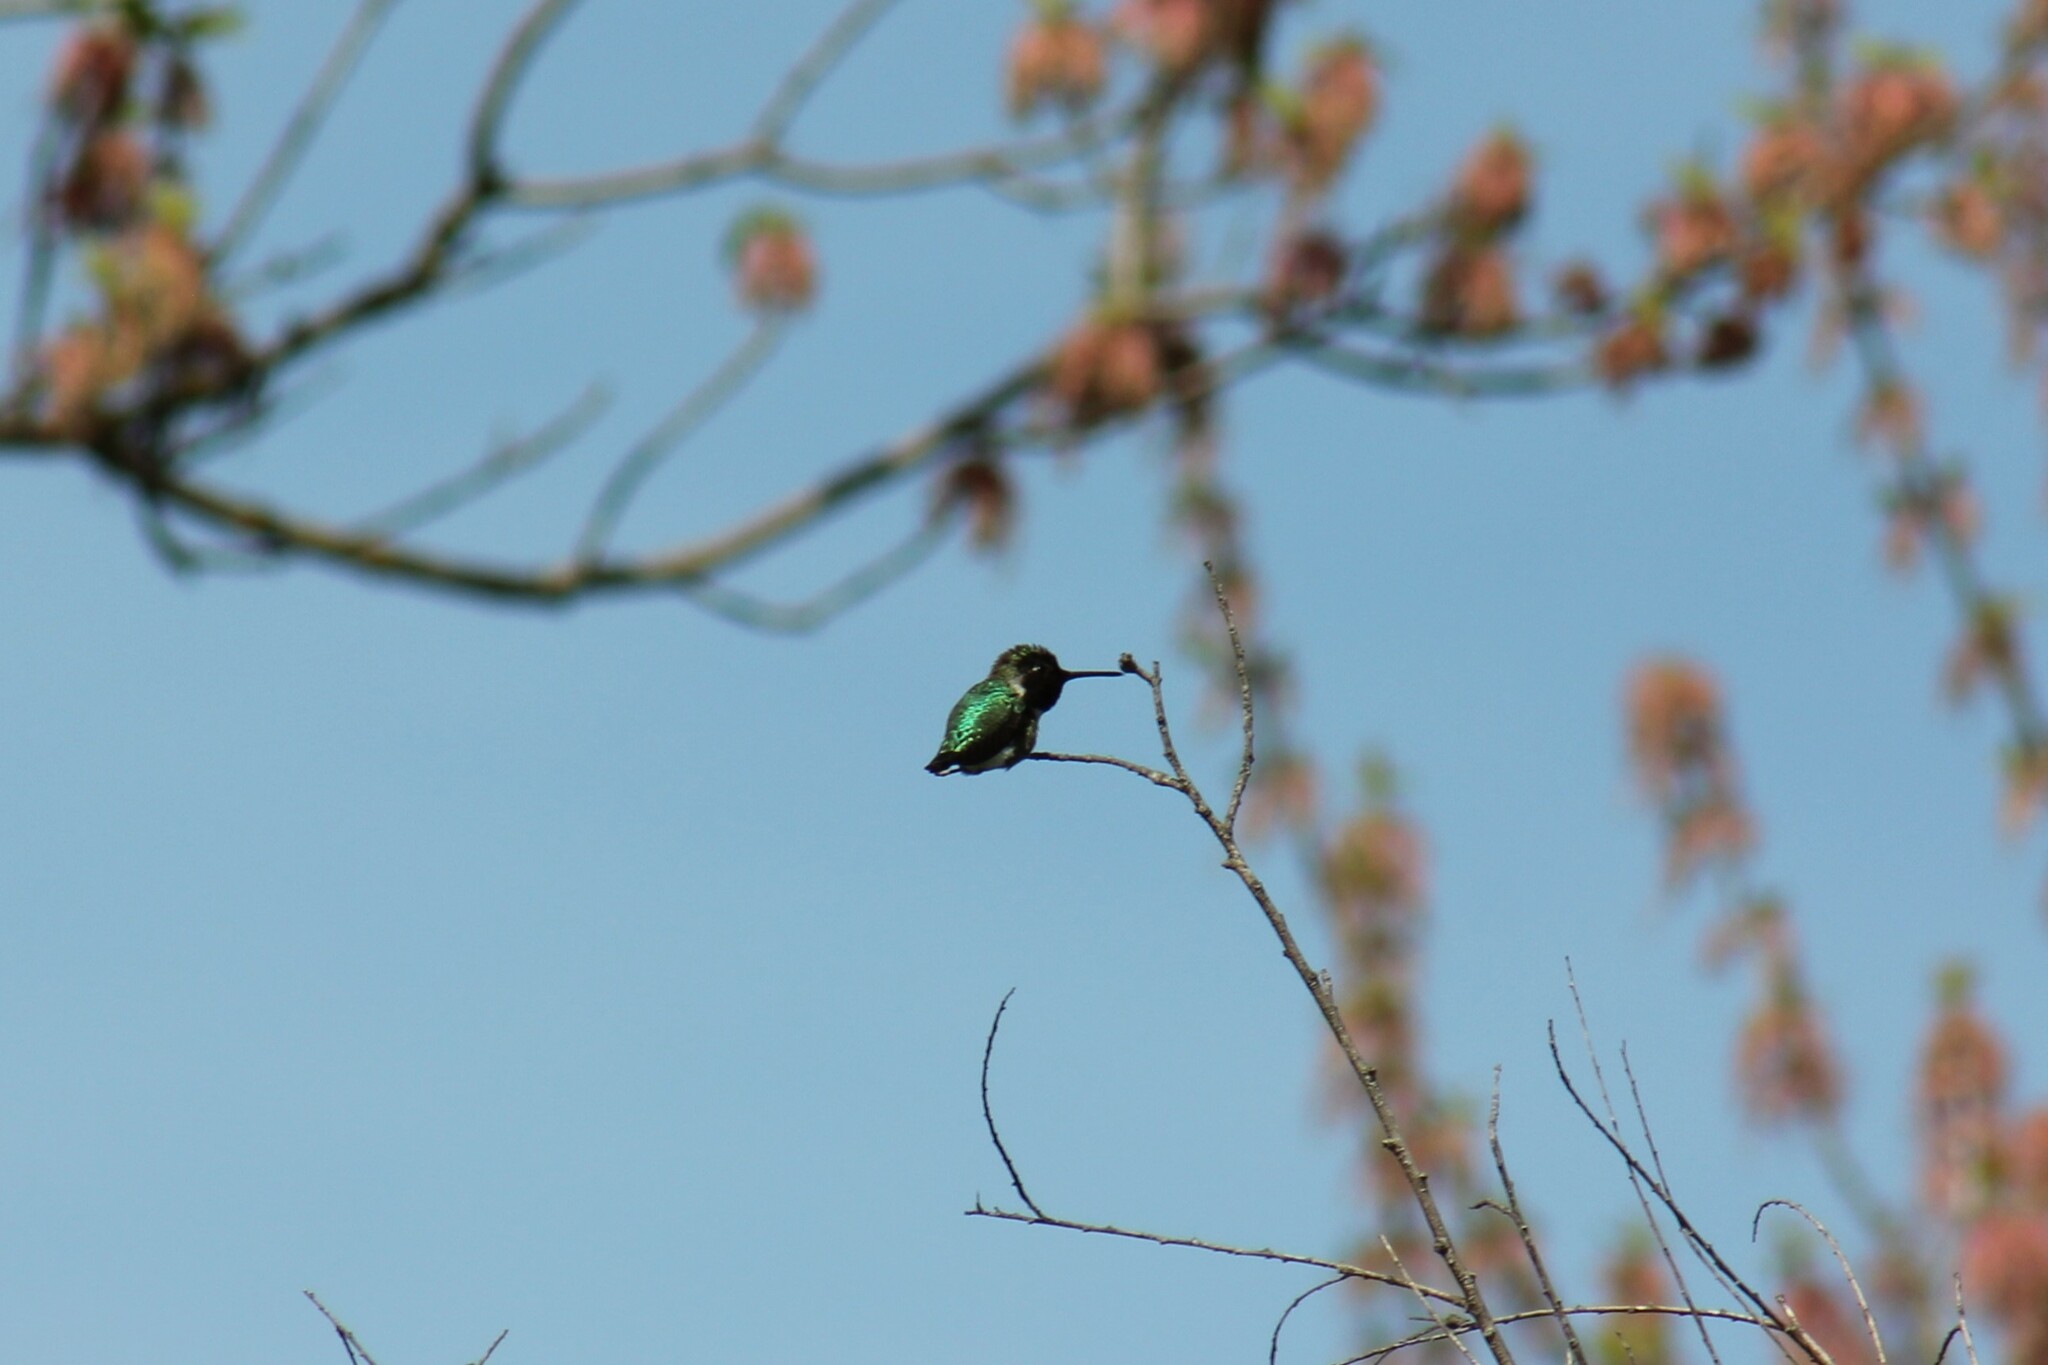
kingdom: Animalia
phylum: Chordata
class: Aves
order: Apodiformes
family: Trochilidae
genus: Calypte
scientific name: Calypte anna
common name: Anna's hummingbird
